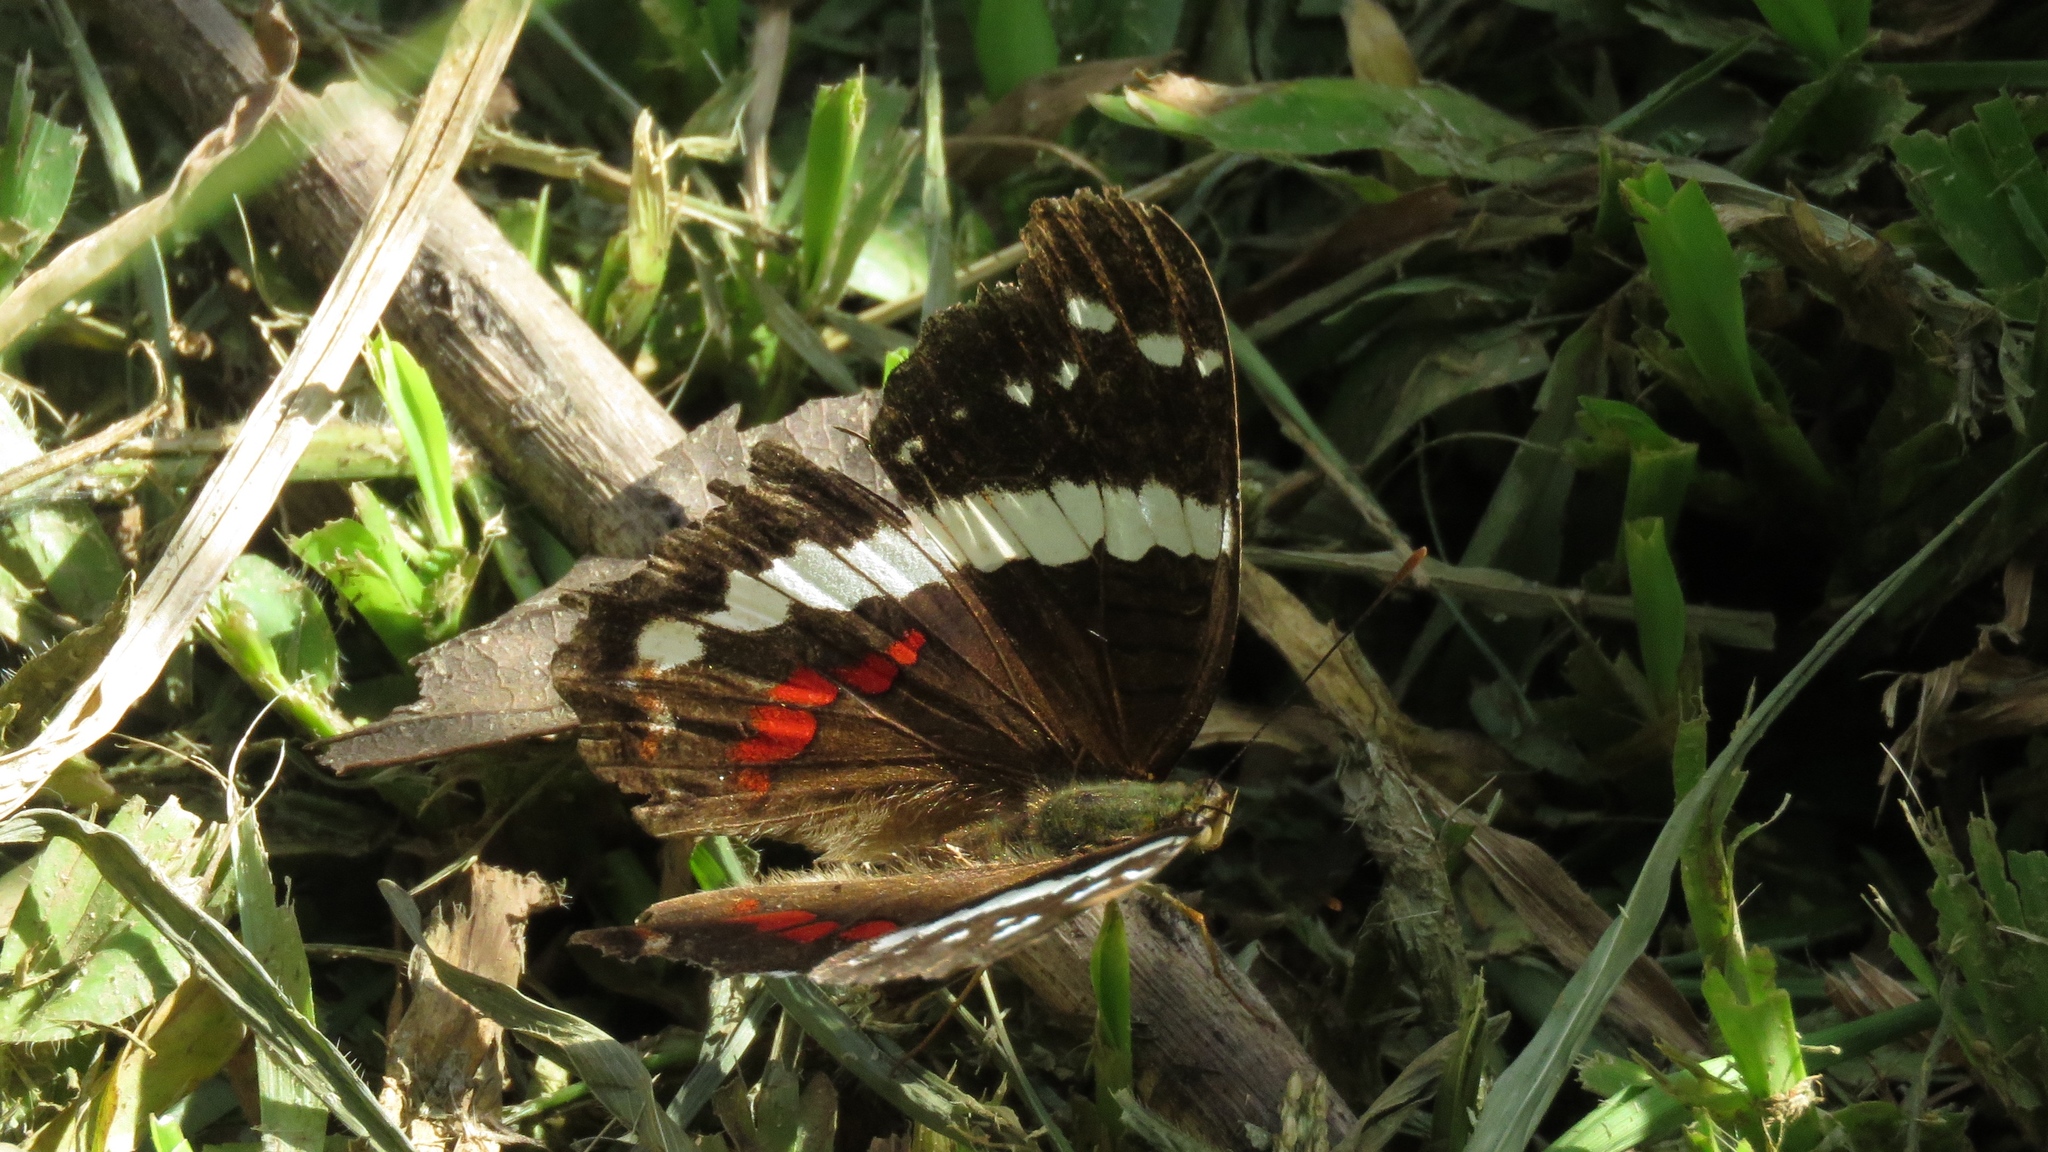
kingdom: Animalia
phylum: Arthropoda
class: Insecta
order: Lepidoptera
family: Nymphalidae
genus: Anartia
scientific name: Anartia fatima
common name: Banded peacock
